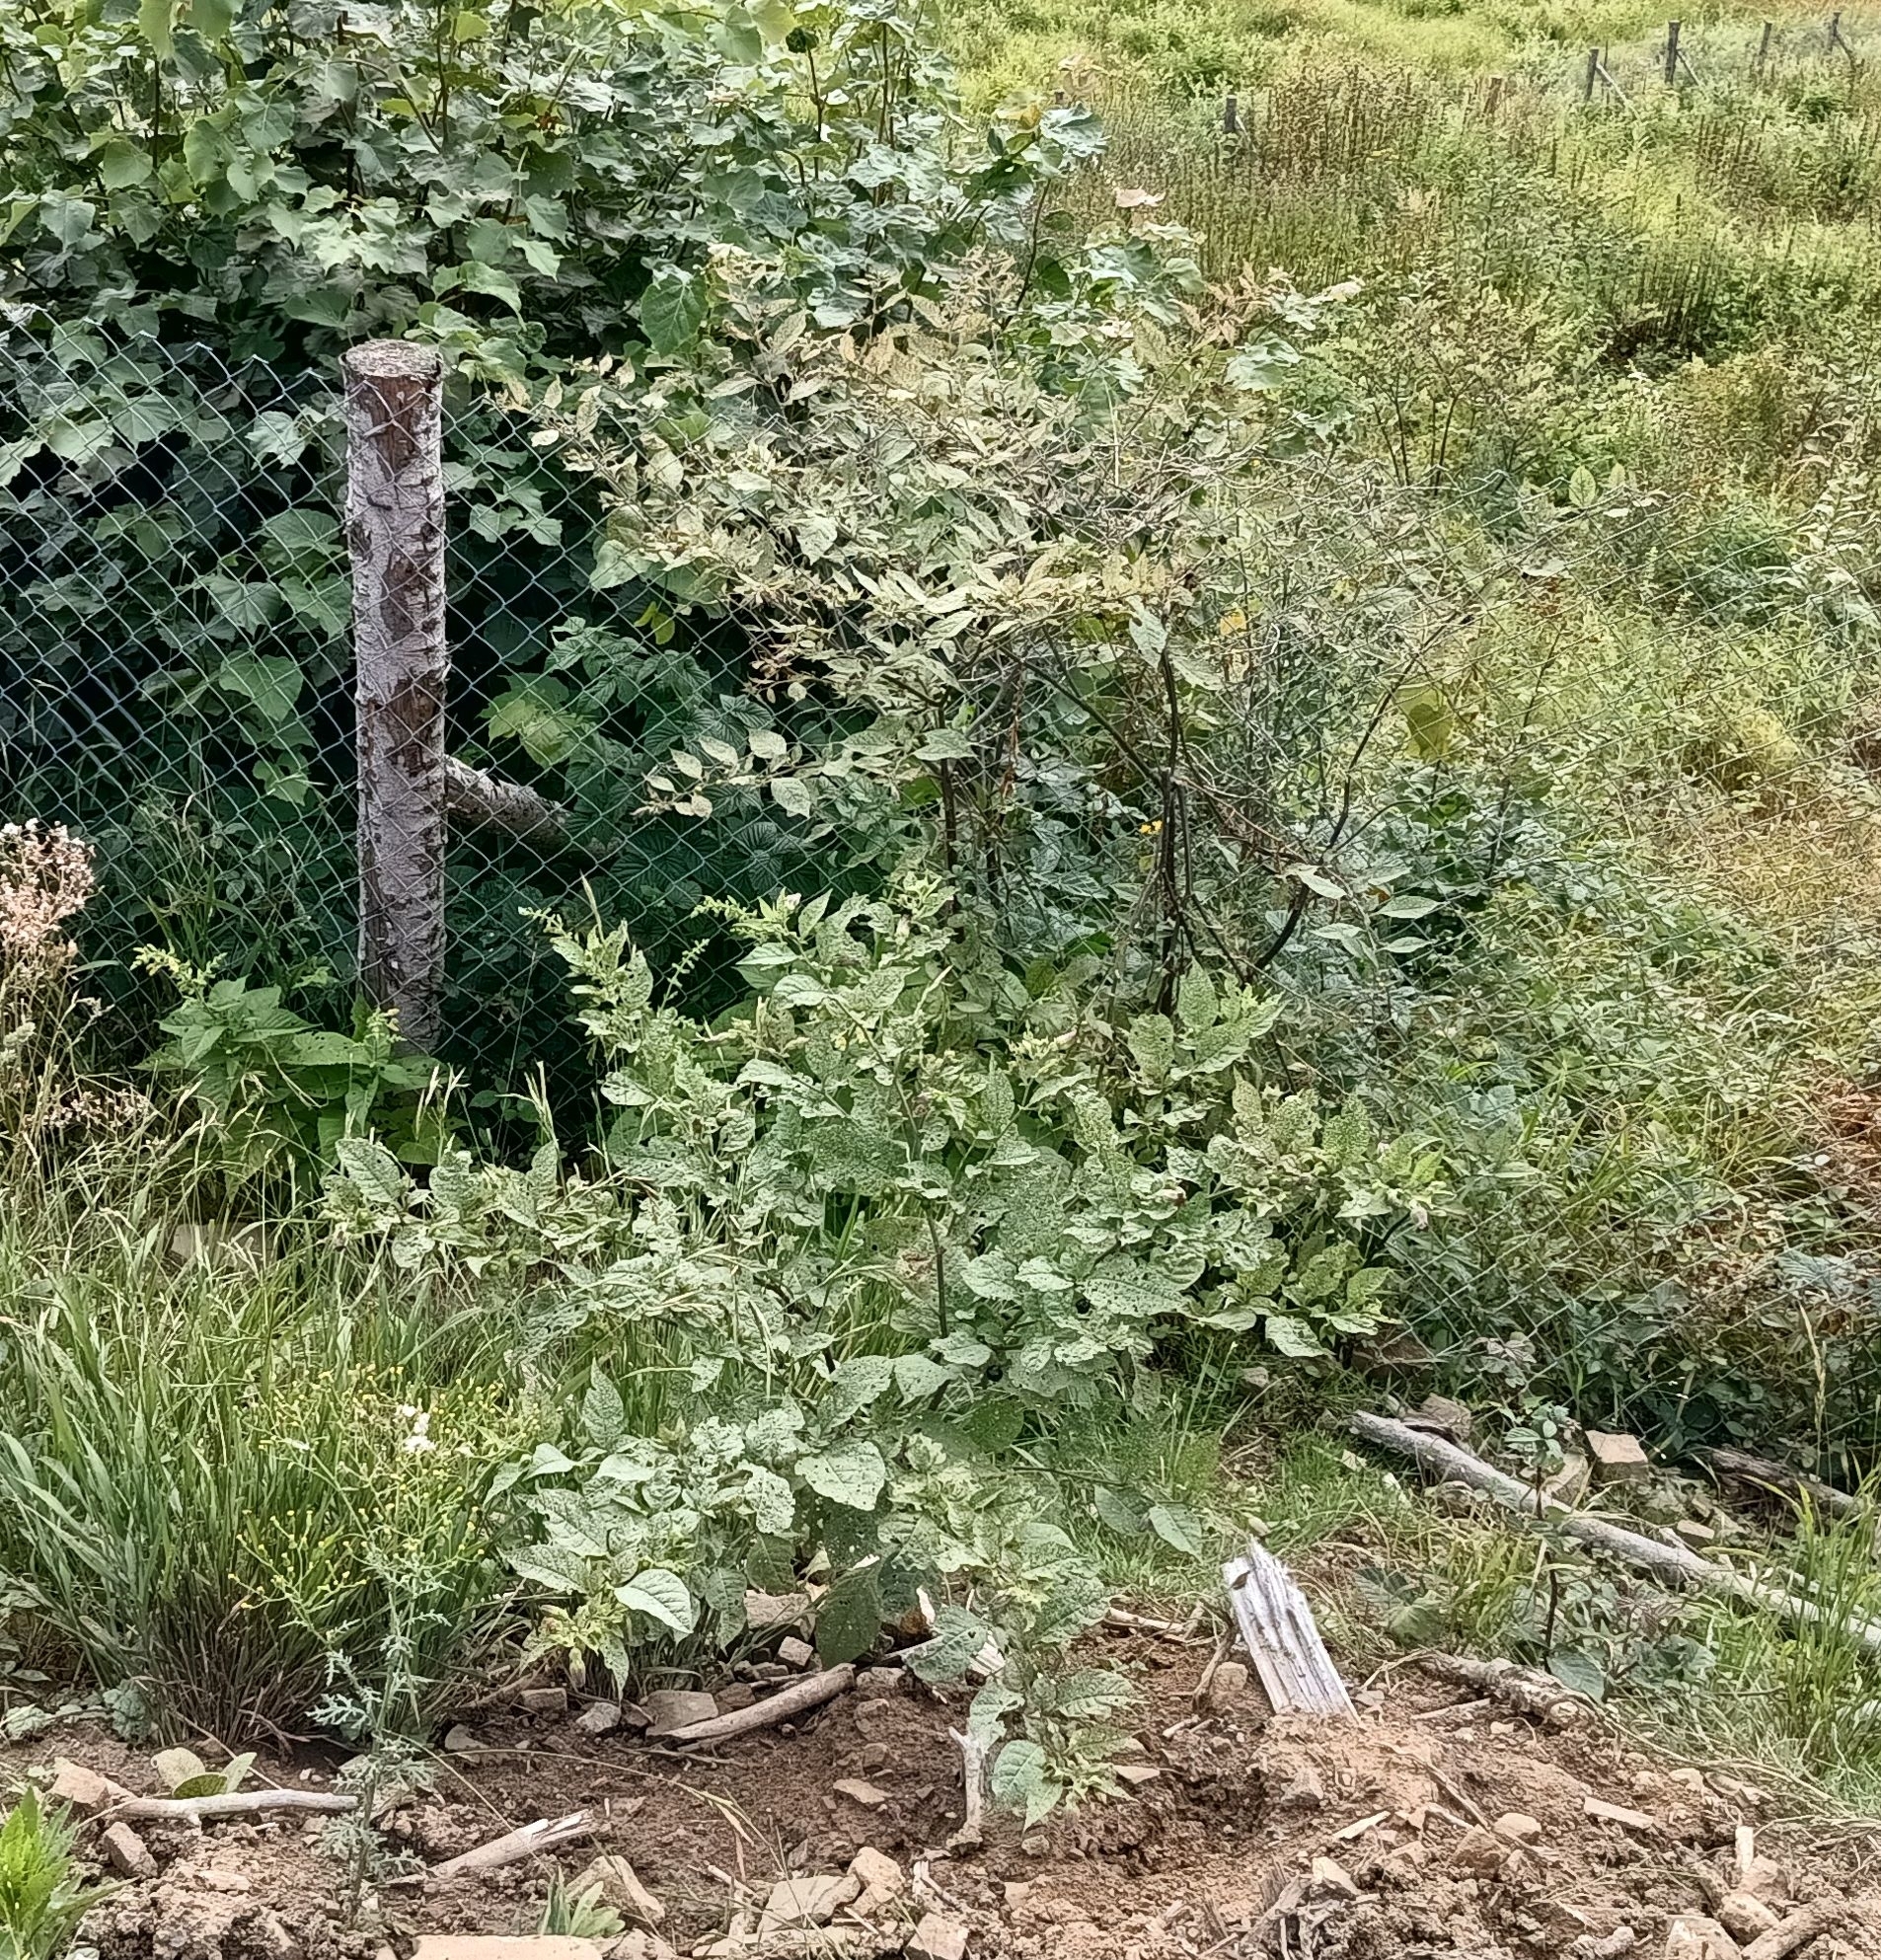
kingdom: Plantae
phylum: Tracheophyta
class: Magnoliopsida
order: Solanales
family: Solanaceae
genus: Atropa
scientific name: Atropa belladonna
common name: Deadly nightshade
